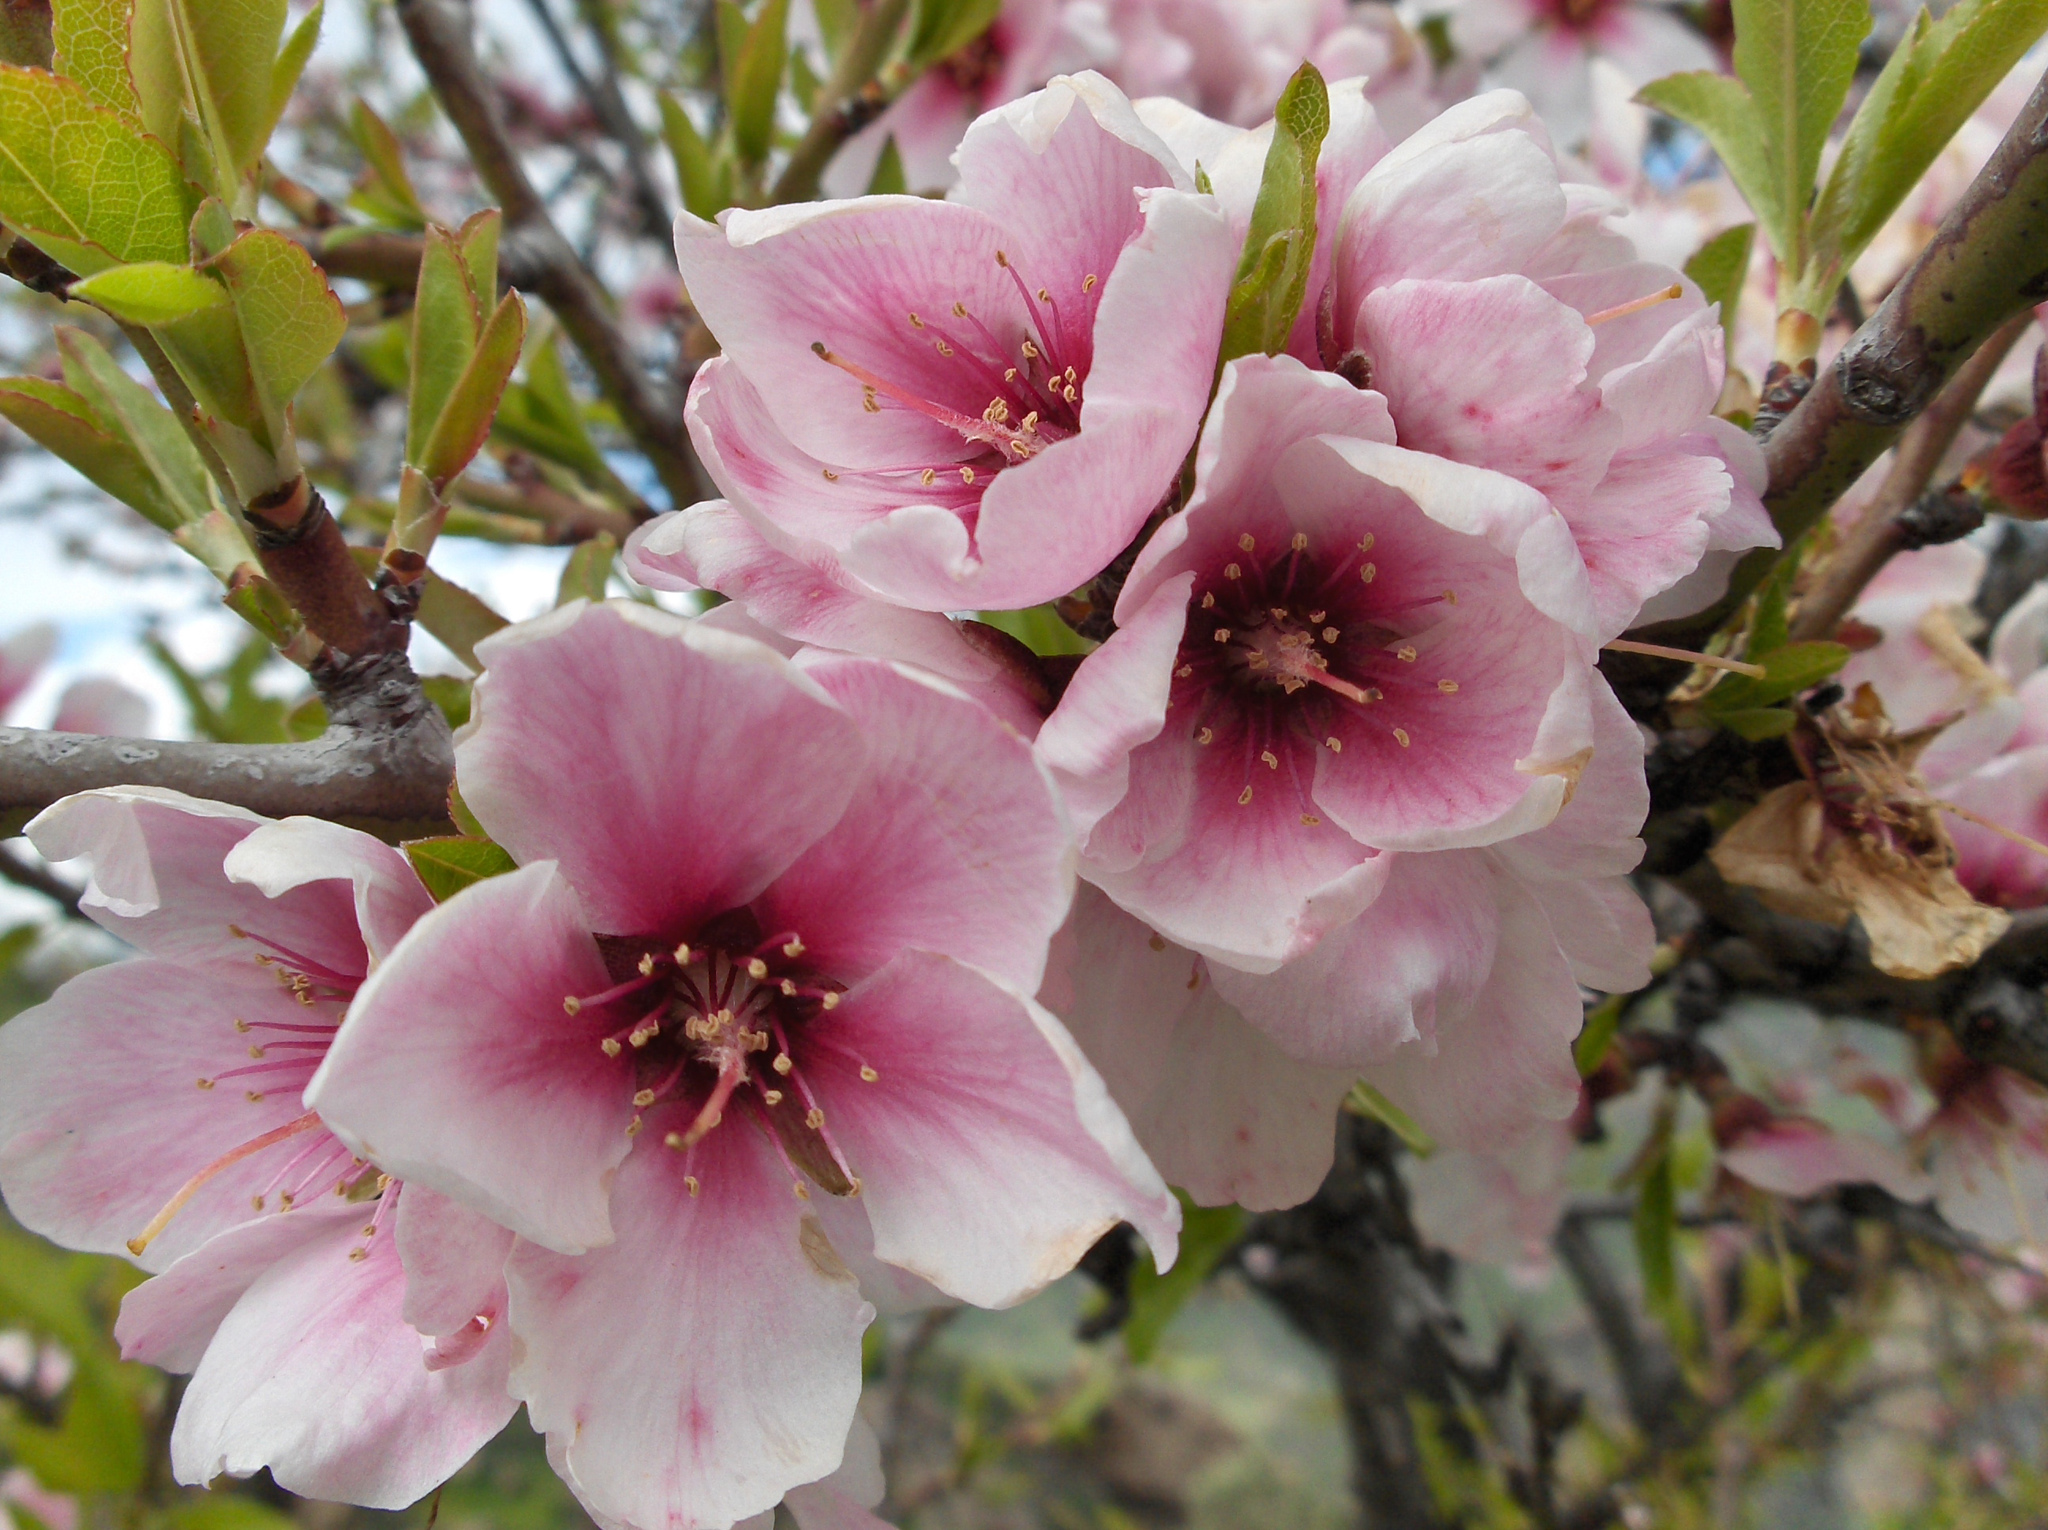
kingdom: Plantae
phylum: Tracheophyta
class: Magnoliopsida
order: Rosales
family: Rosaceae
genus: Prunus
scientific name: Prunus amygdalus
